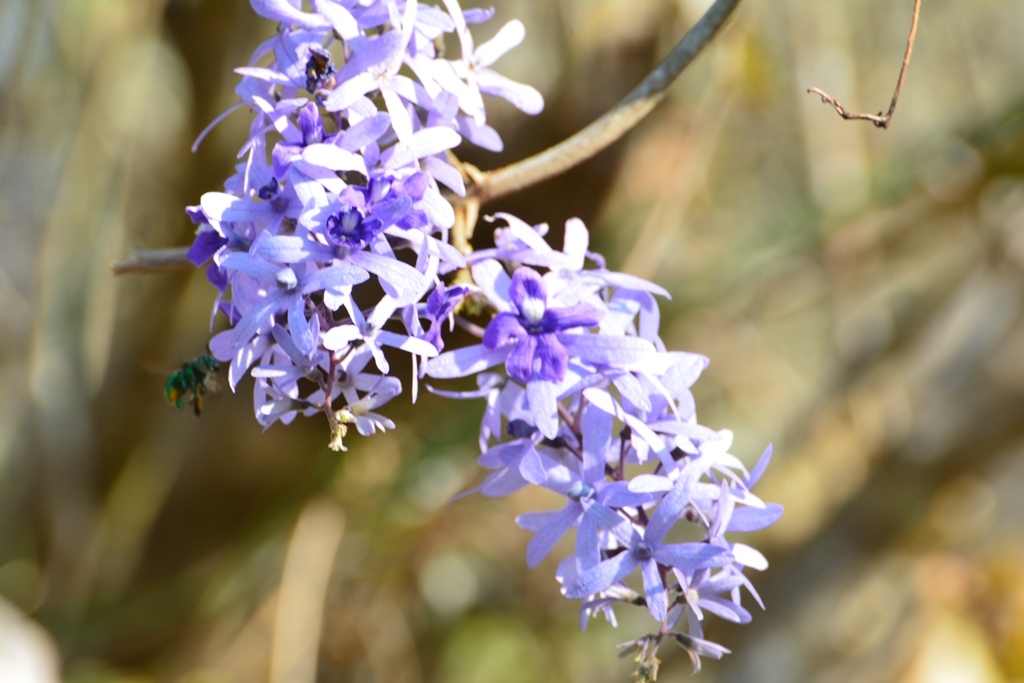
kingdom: Plantae
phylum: Tracheophyta
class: Magnoliopsida
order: Lamiales
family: Verbenaceae
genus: Petrea
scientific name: Petrea volubilis
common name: Queen's-wreath
